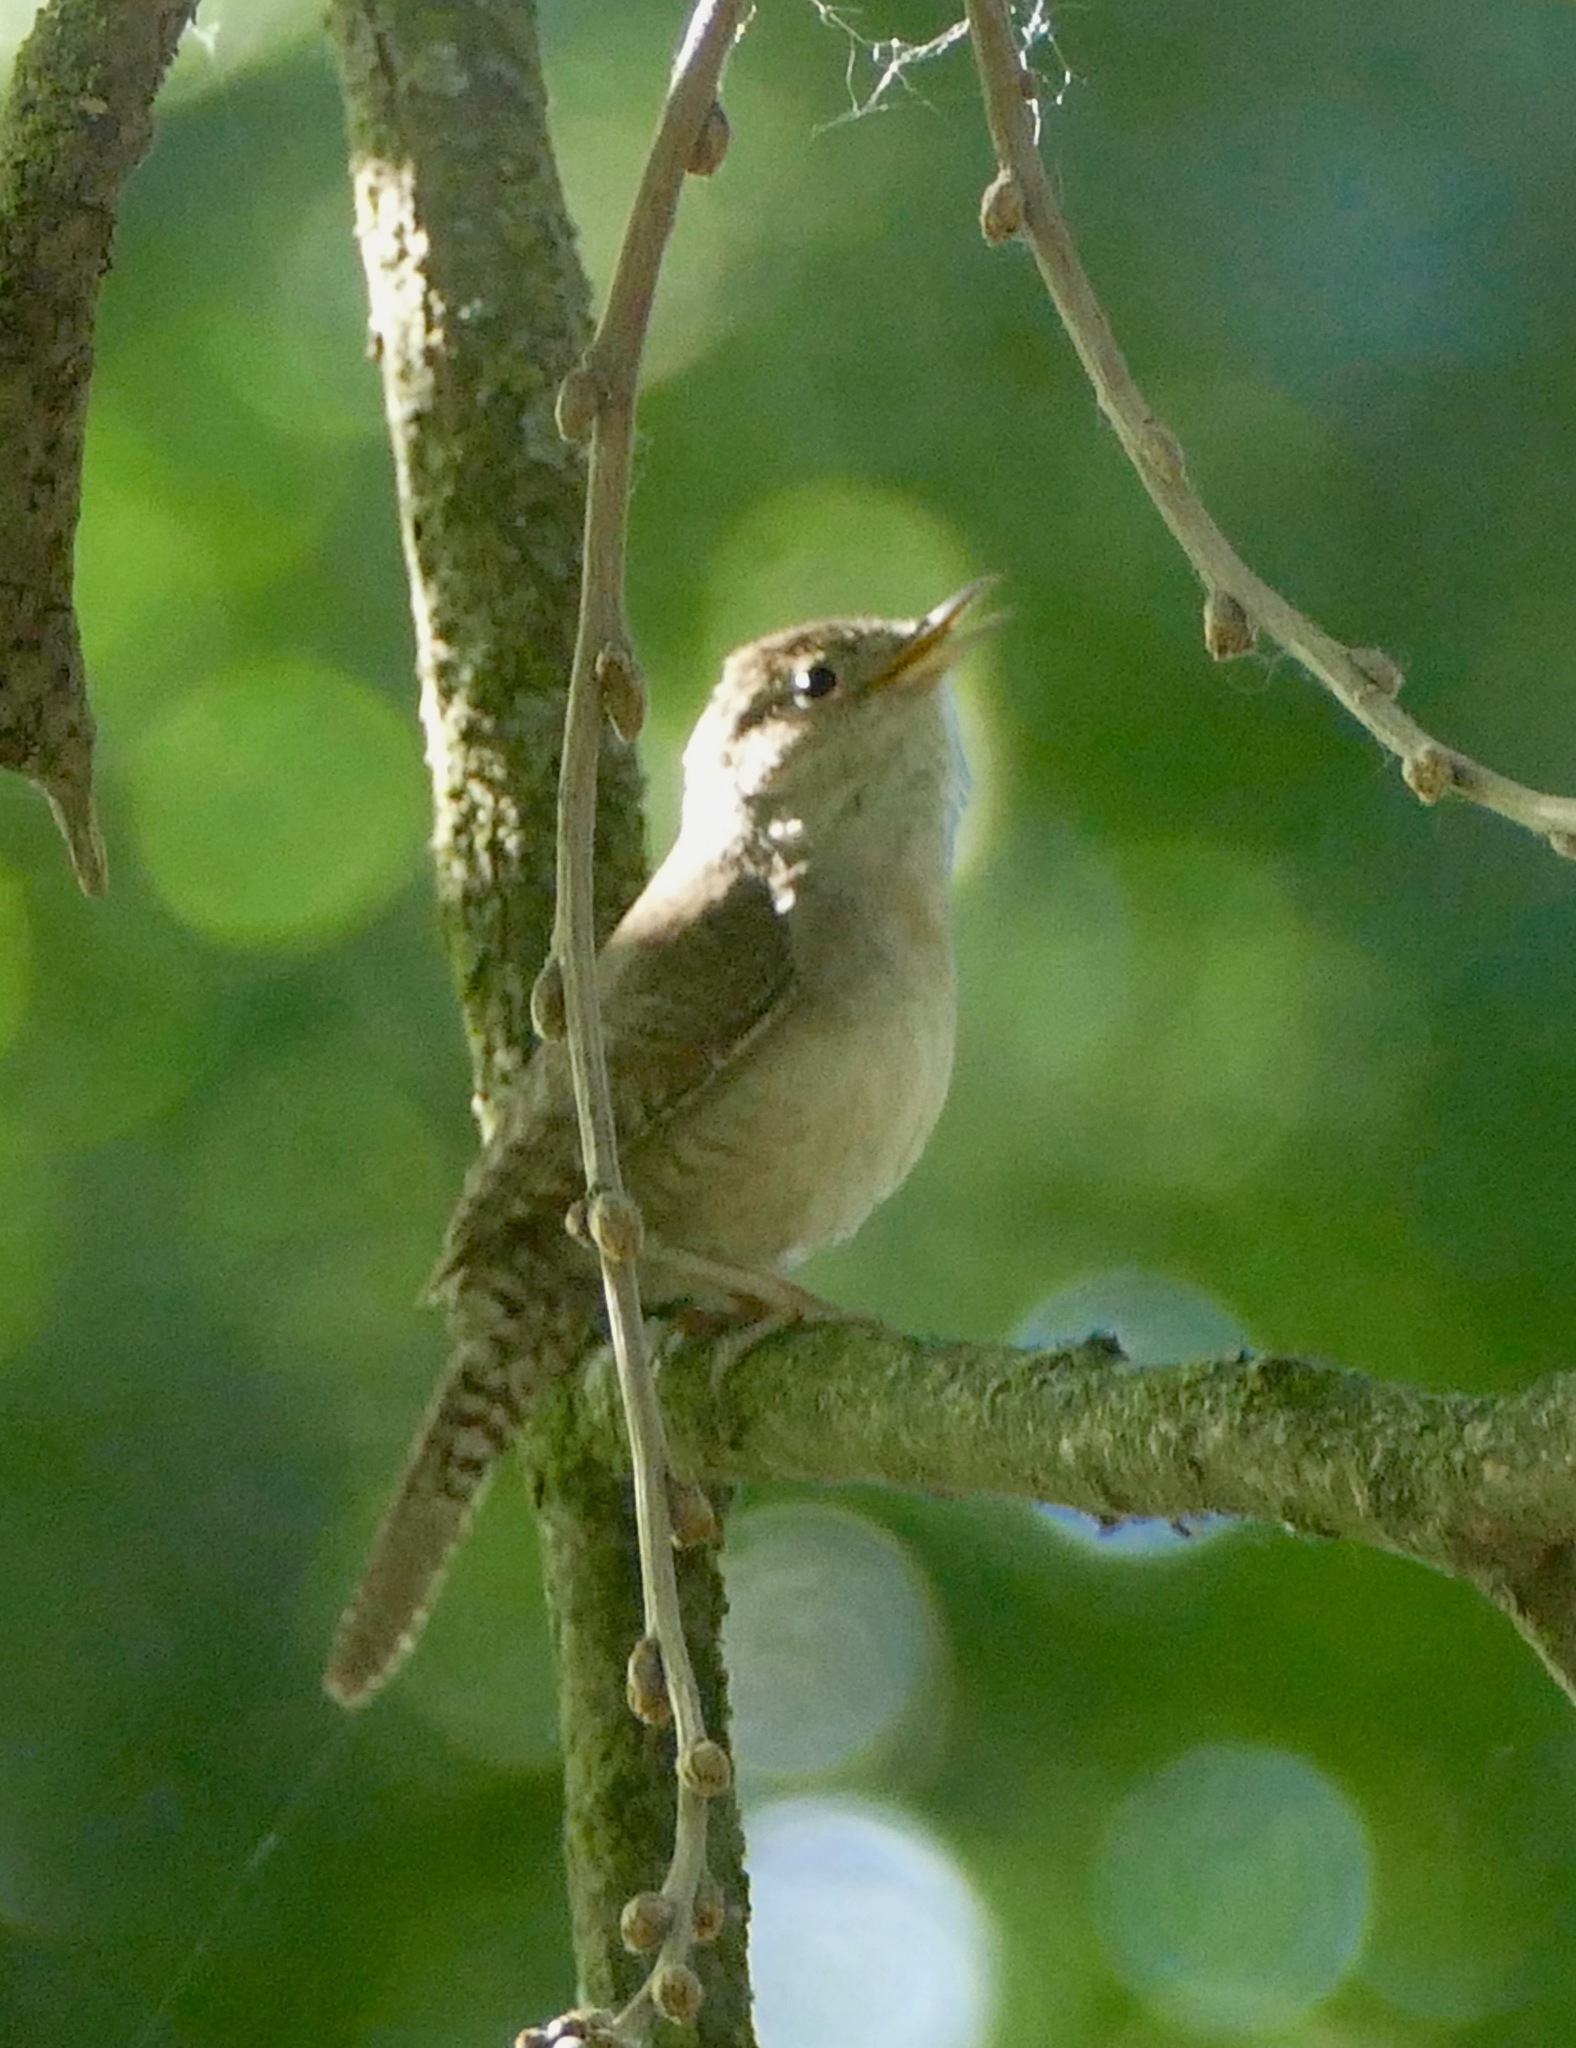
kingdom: Animalia
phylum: Chordata
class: Aves
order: Passeriformes
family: Troglodytidae
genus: Troglodytes
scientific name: Troglodytes aedon
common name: House wren
